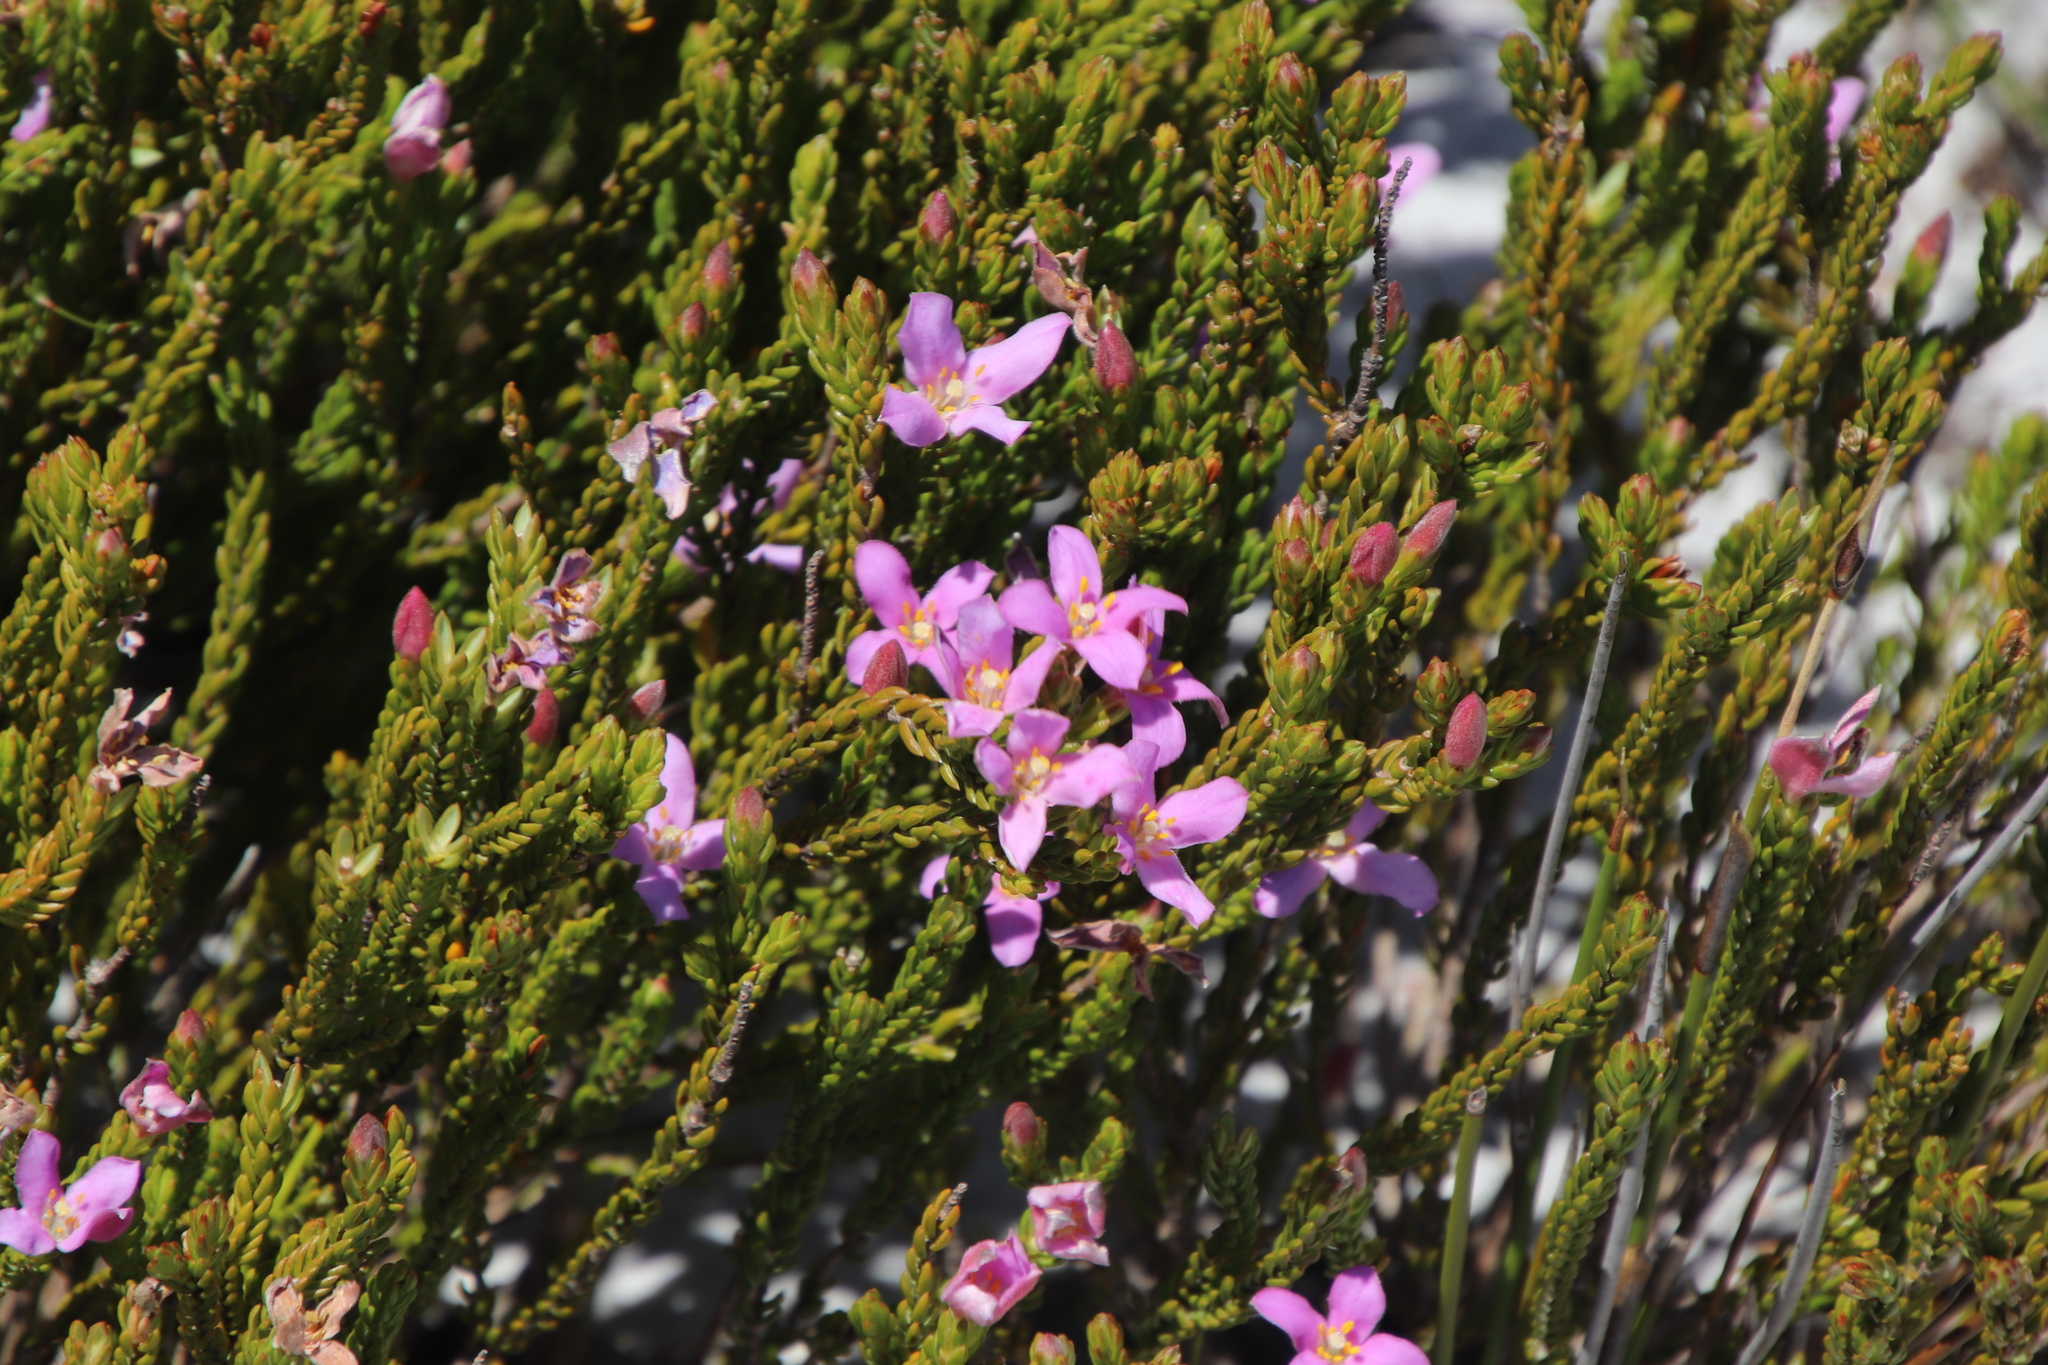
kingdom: Plantae
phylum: Tracheophyta
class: Magnoliopsida
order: Malvales
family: Thymelaeaceae
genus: Lachnaea
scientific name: Lachnaea grandiflora
